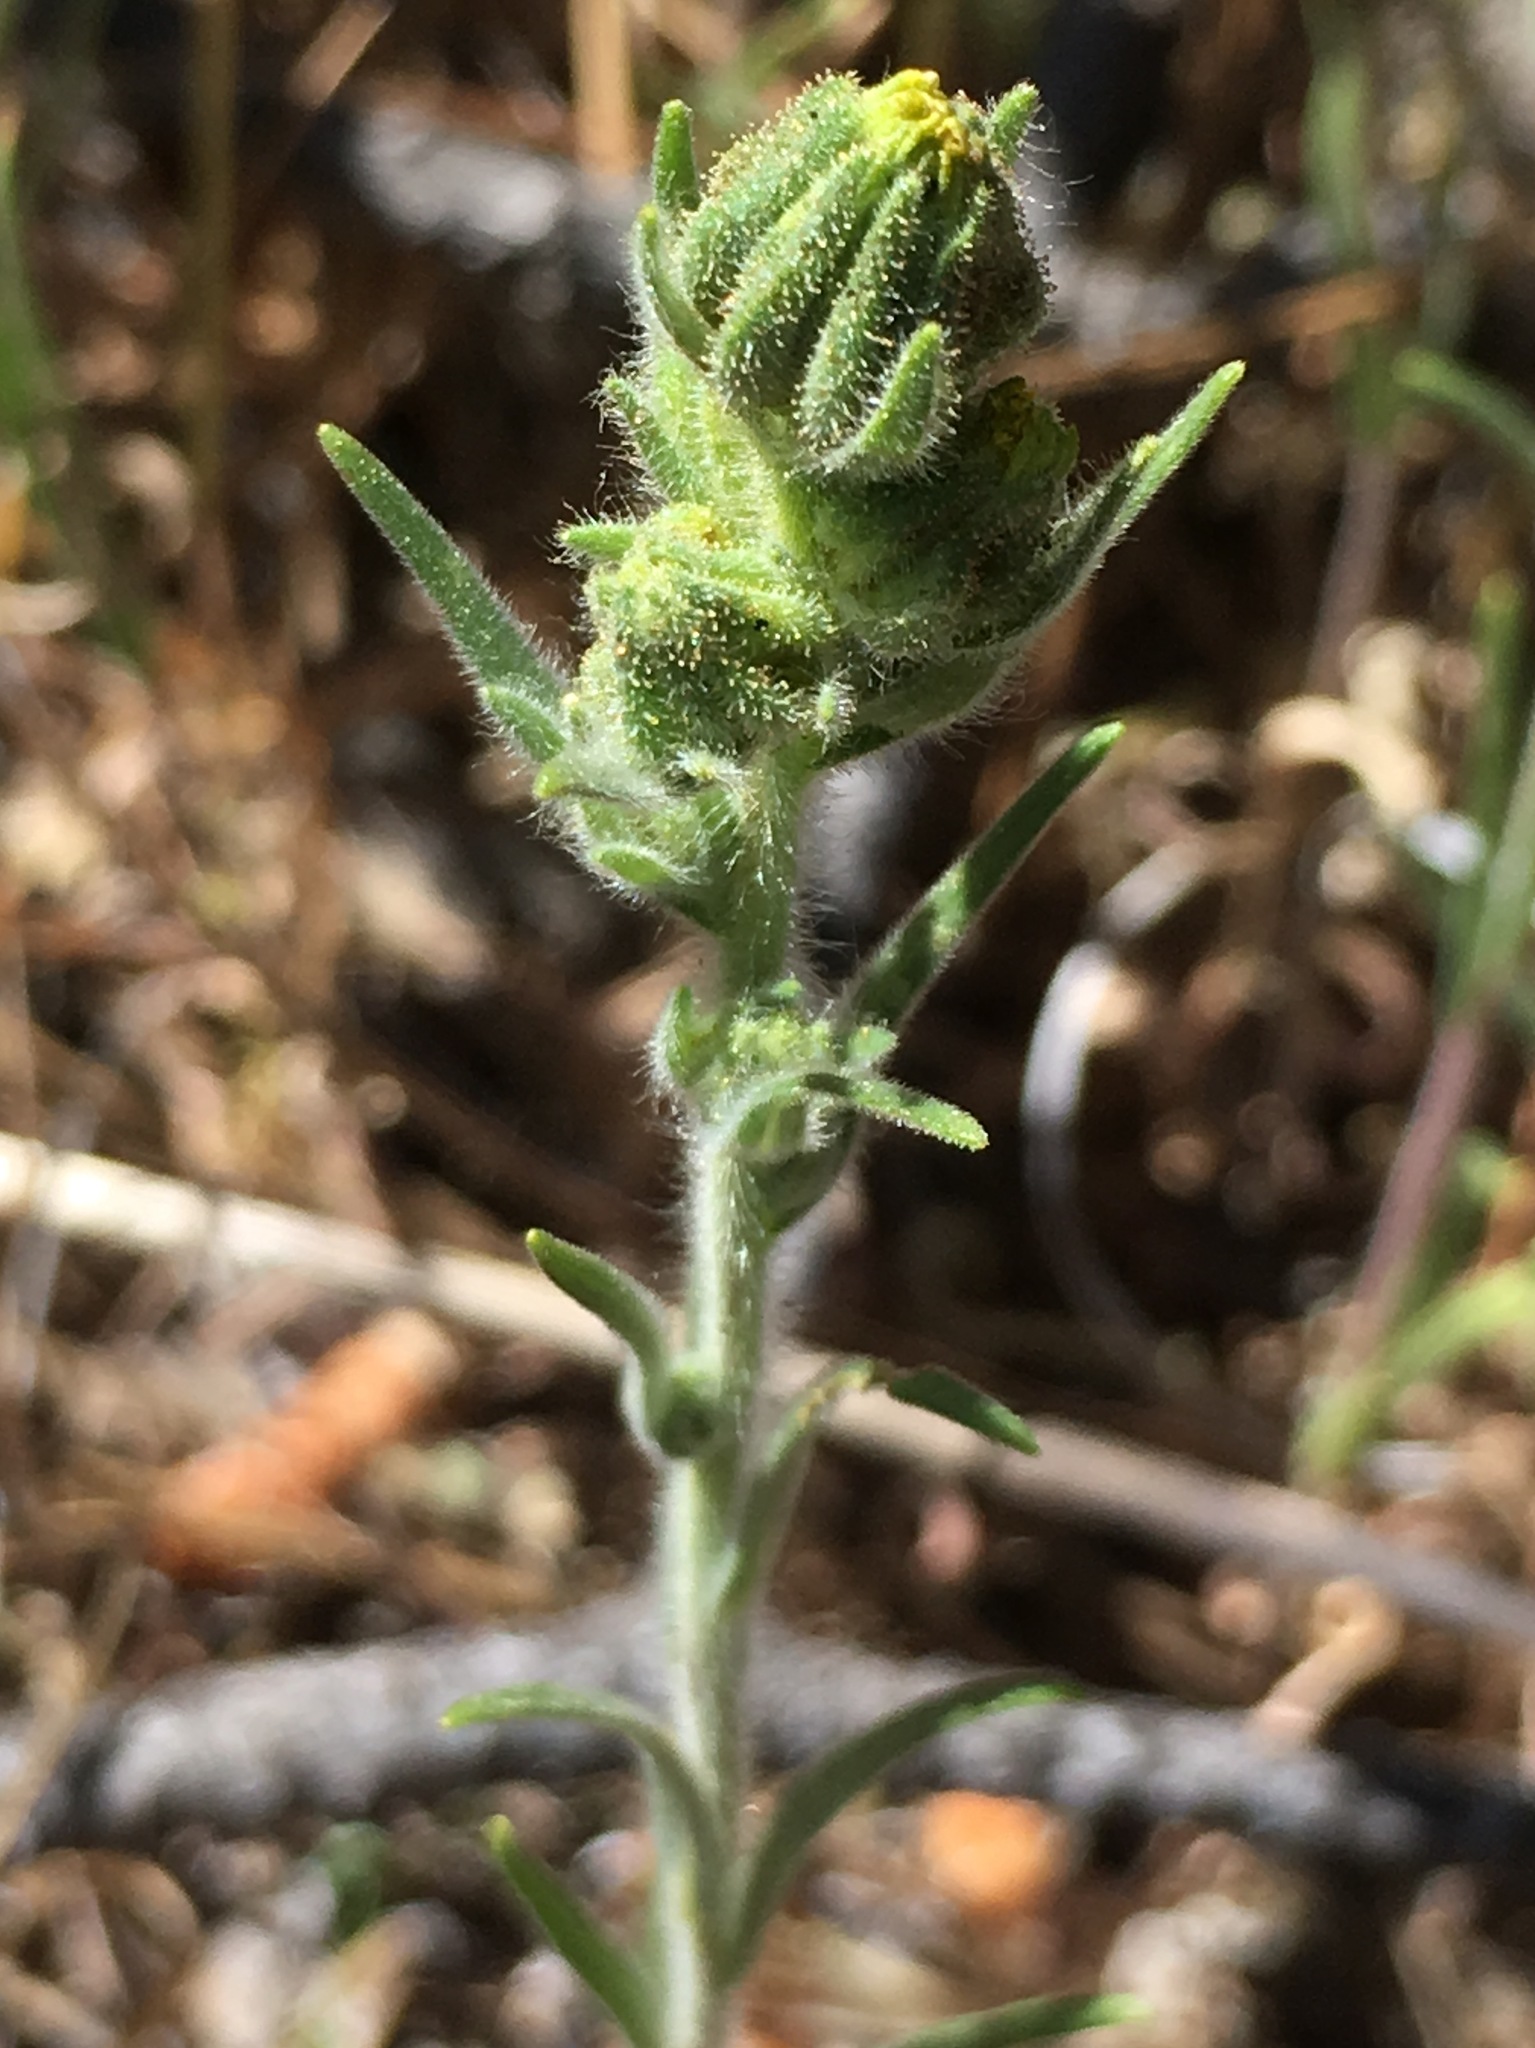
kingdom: Plantae
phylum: Tracheophyta
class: Magnoliopsida
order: Asterales
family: Asteraceae
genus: Madia
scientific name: Madia gracilis
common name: Grassy tarweed
